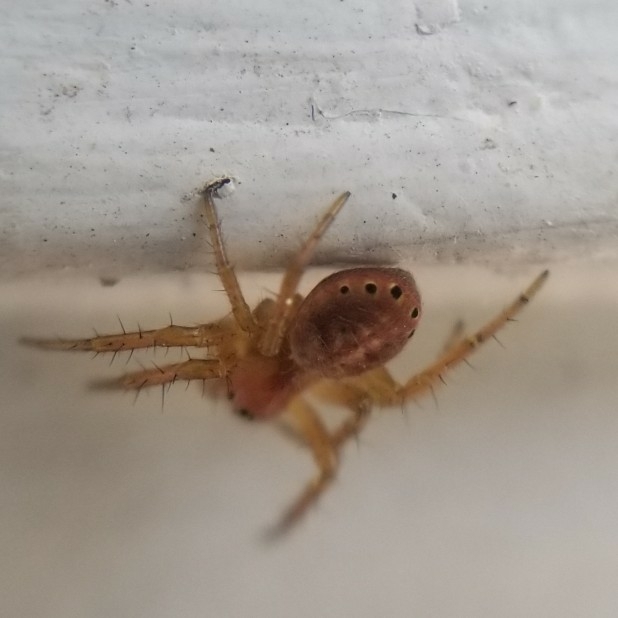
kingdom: Animalia
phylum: Arthropoda
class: Arachnida
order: Araneae
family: Araneidae
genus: Araniella
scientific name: Araniella displicata
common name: Sixspotted orb weaver
